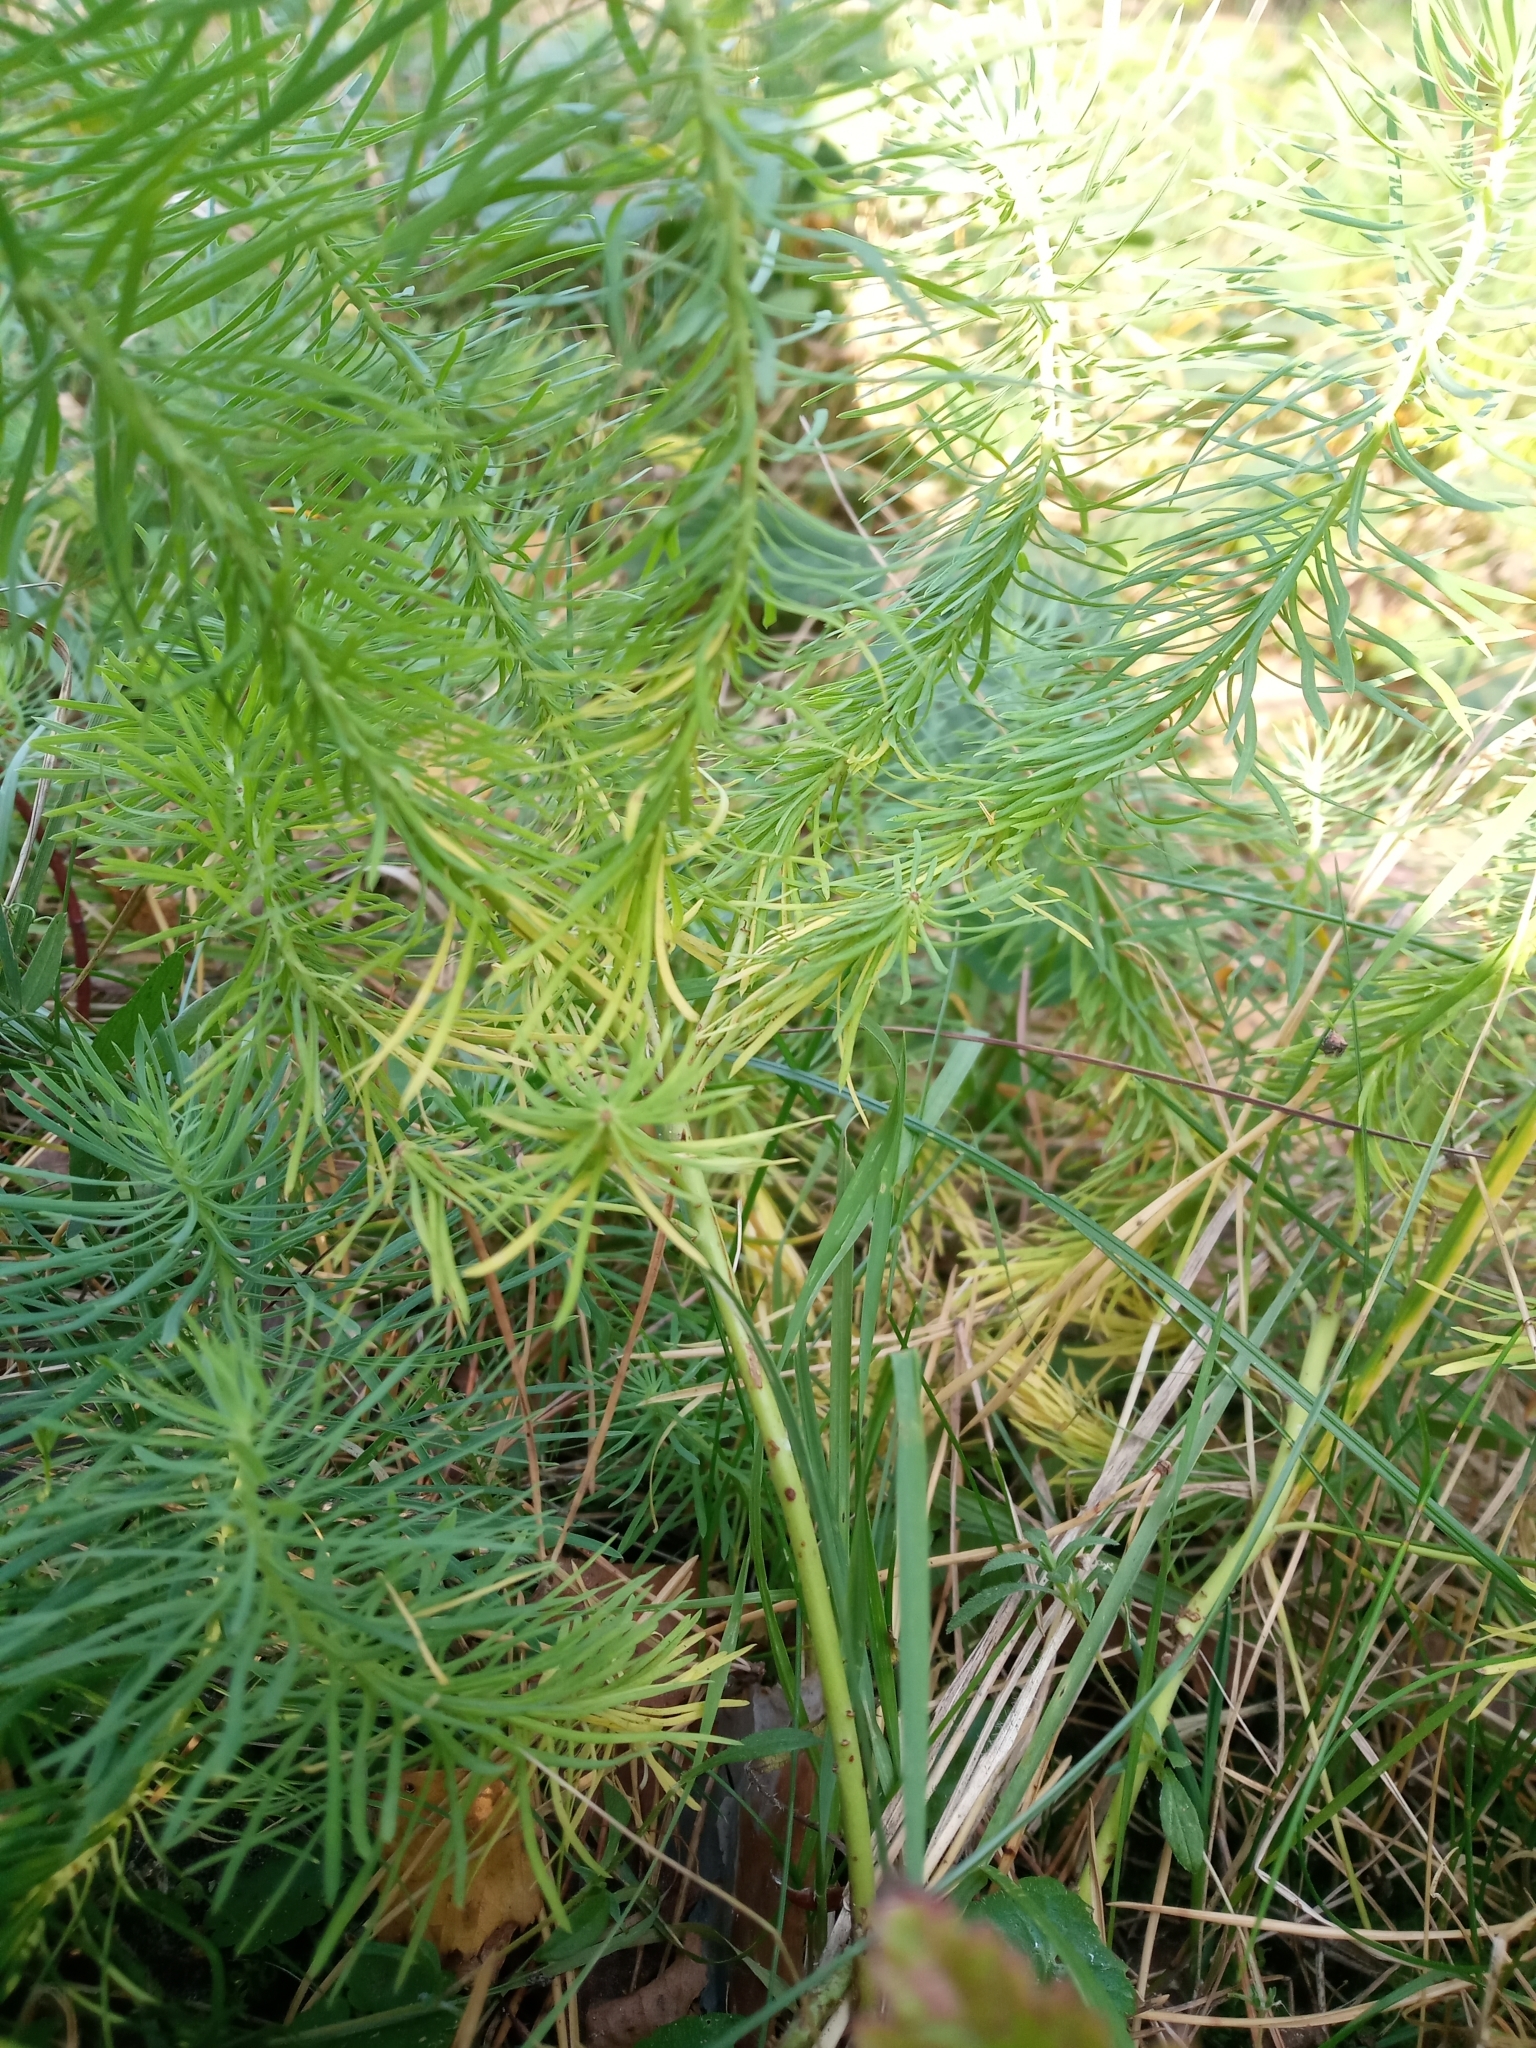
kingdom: Plantae
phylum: Tracheophyta
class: Magnoliopsida
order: Malpighiales
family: Euphorbiaceae
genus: Euphorbia
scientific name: Euphorbia cyparissias
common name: Cypress spurge
